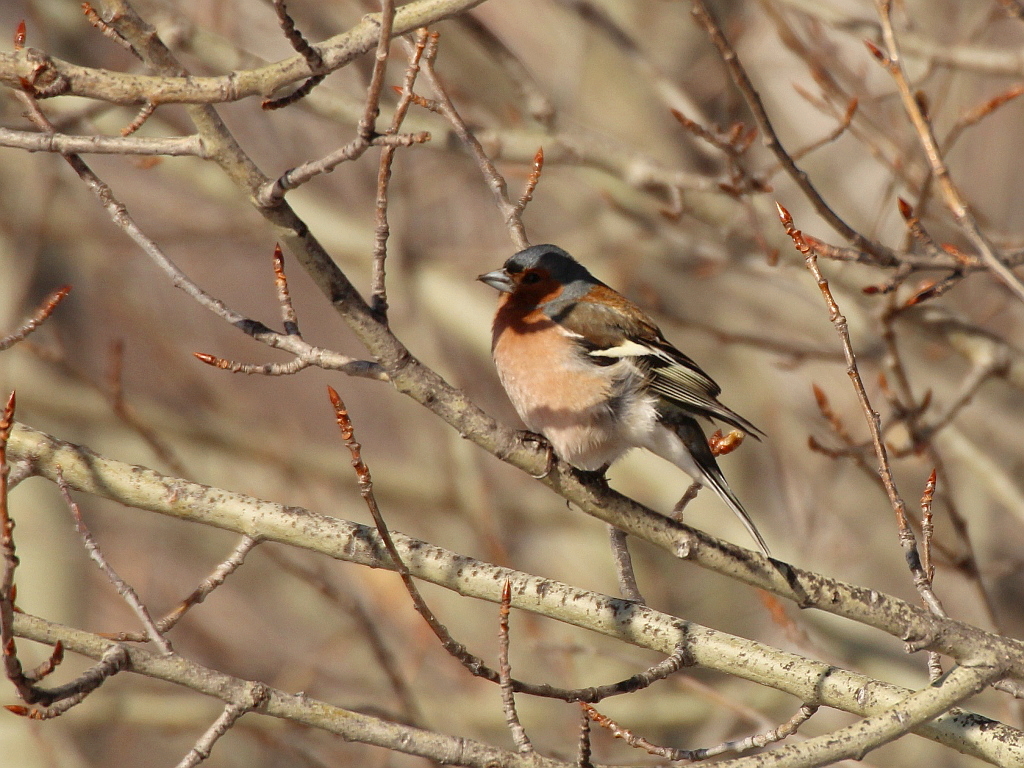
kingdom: Animalia
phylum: Chordata
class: Aves
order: Passeriformes
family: Fringillidae
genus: Fringilla
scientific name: Fringilla coelebs
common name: Common chaffinch
